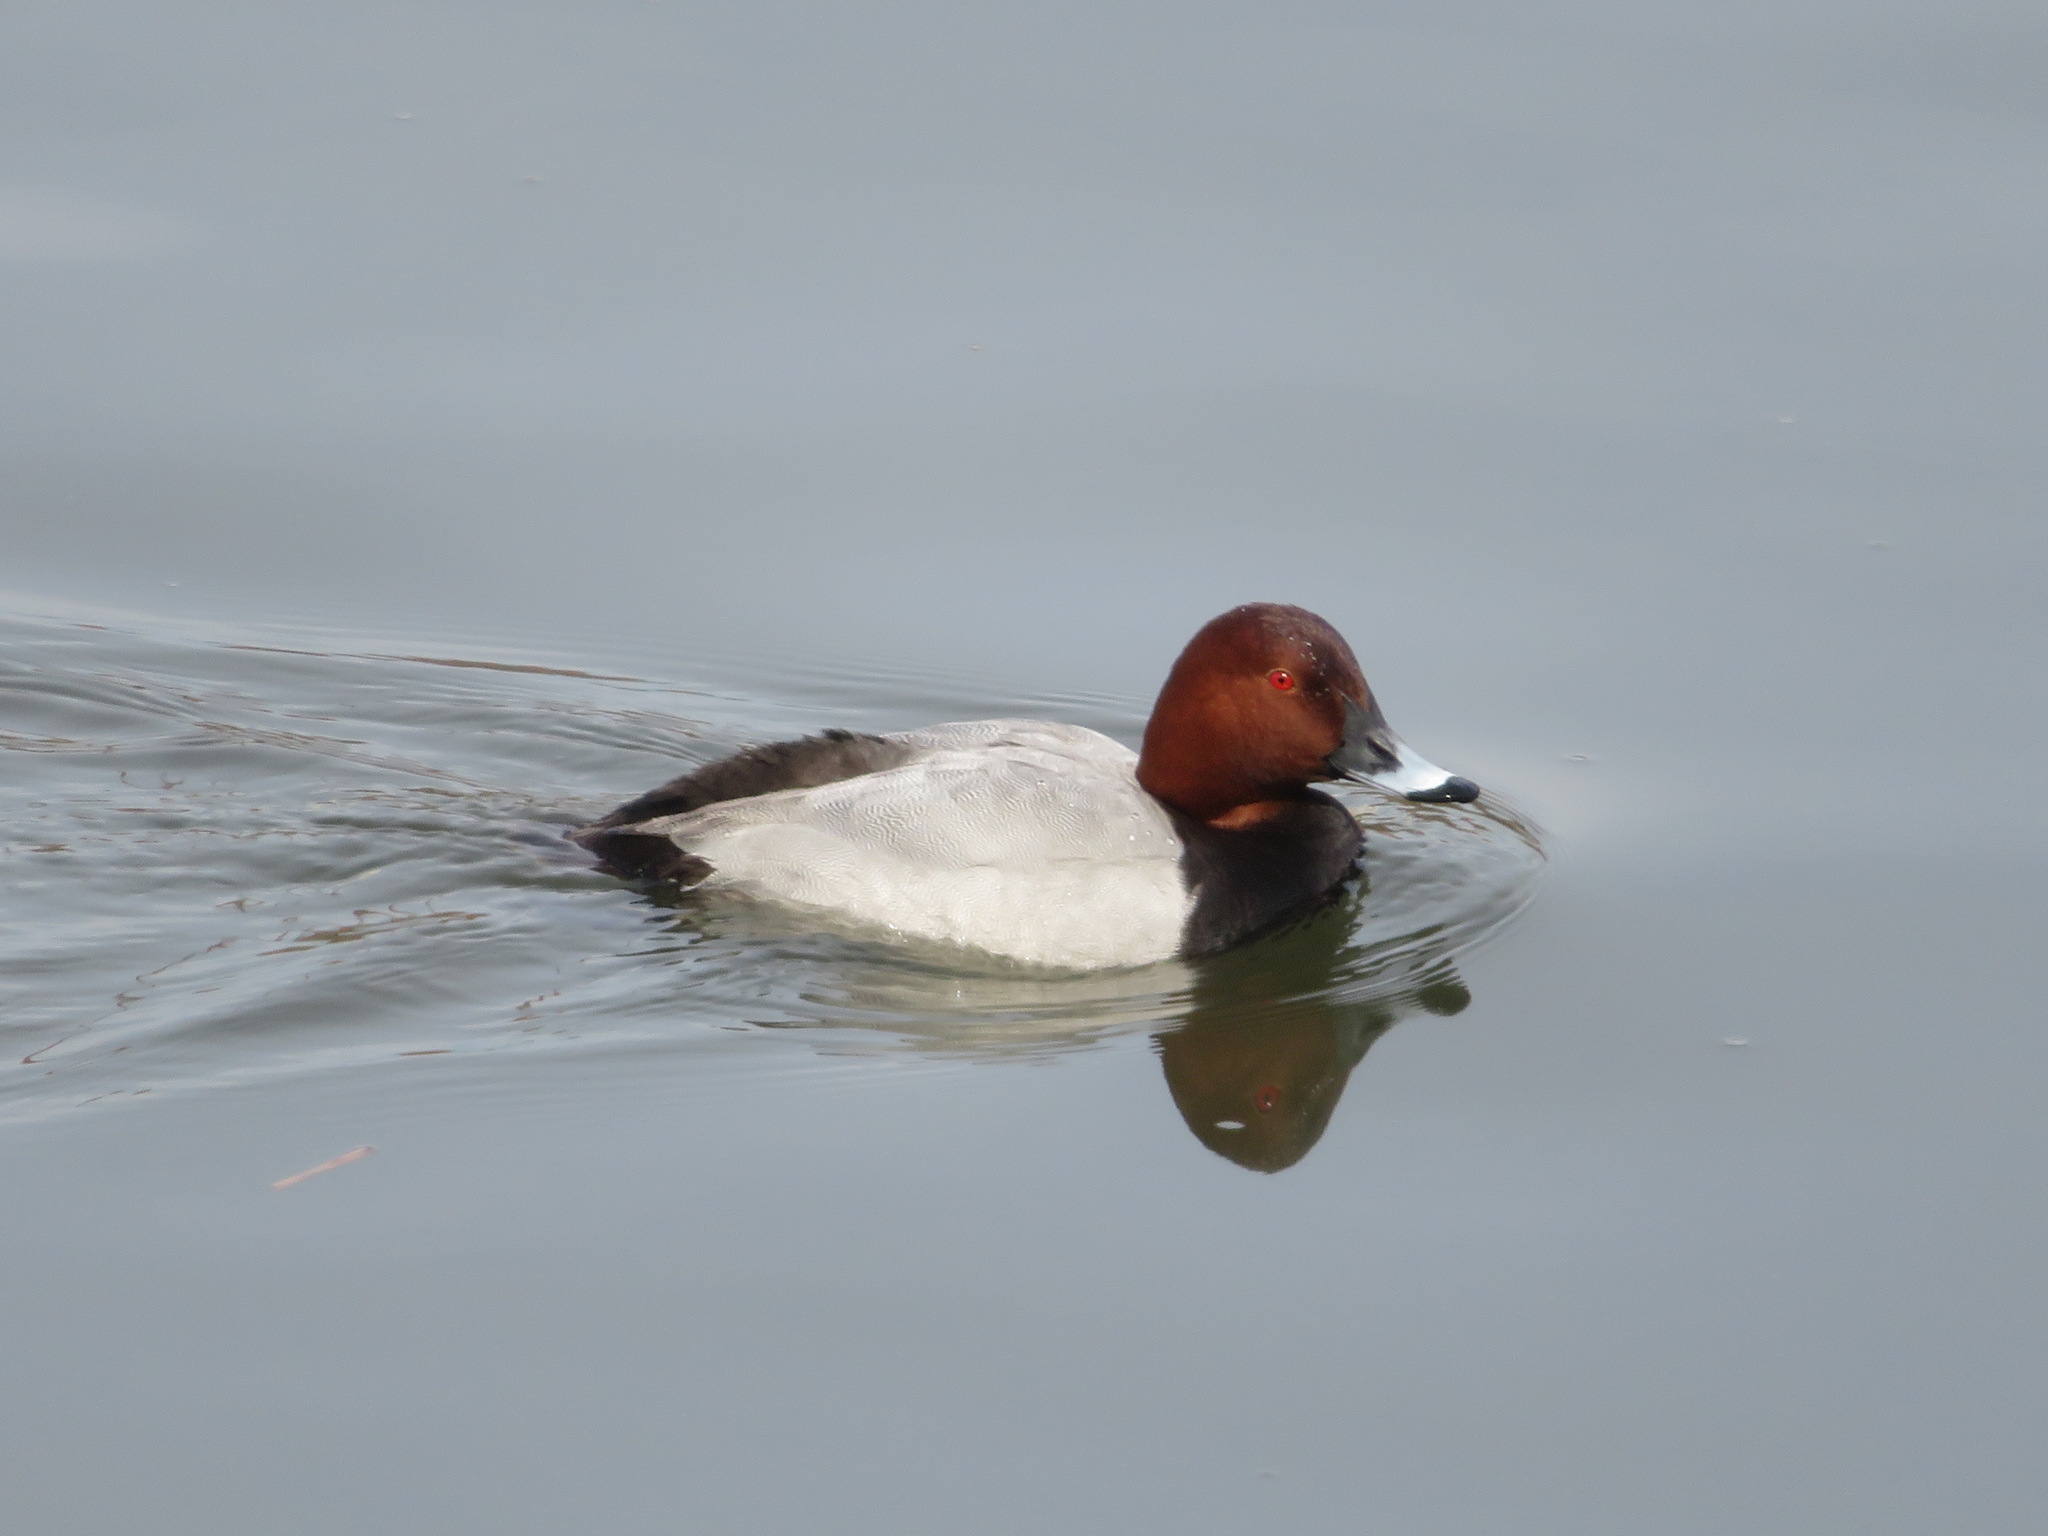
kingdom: Animalia
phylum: Chordata
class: Aves
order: Anseriformes
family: Anatidae
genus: Aythya
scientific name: Aythya ferina
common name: Common pochard
